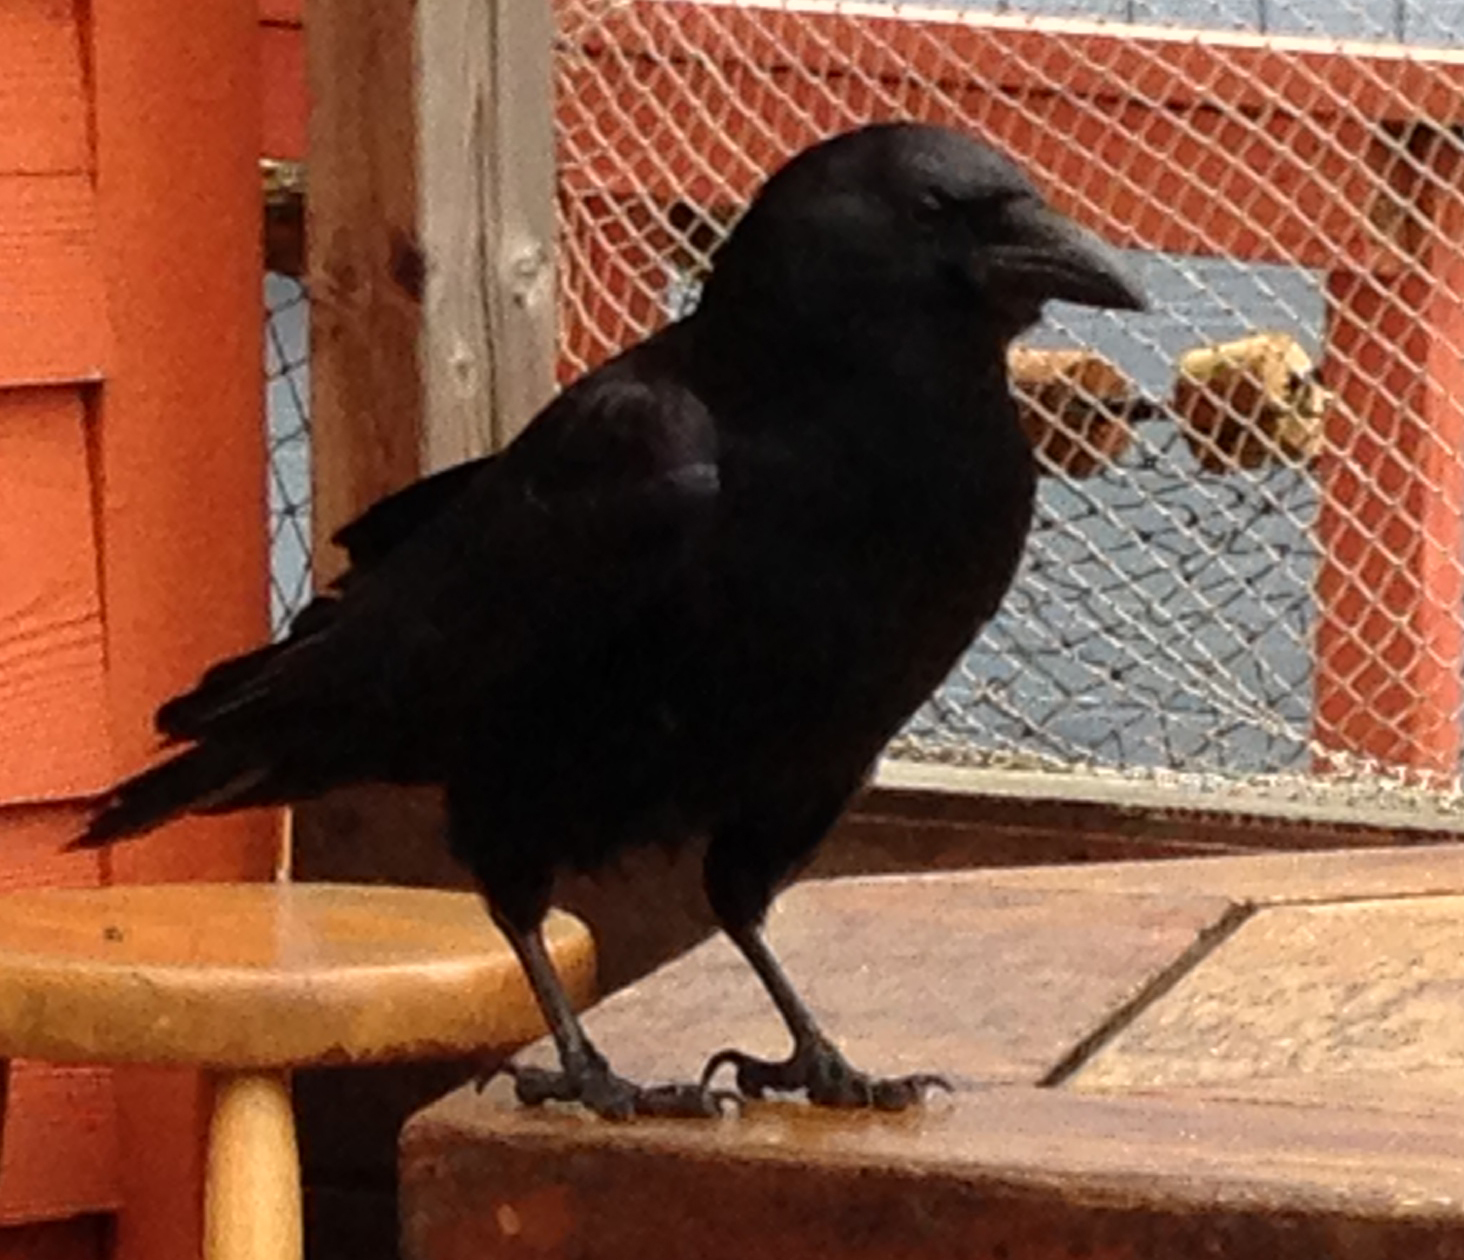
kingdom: Animalia
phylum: Chordata
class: Aves
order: Passeriformes
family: Corvidae
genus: Corvus
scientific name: Corvus brachyrhynchos
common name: American crow
